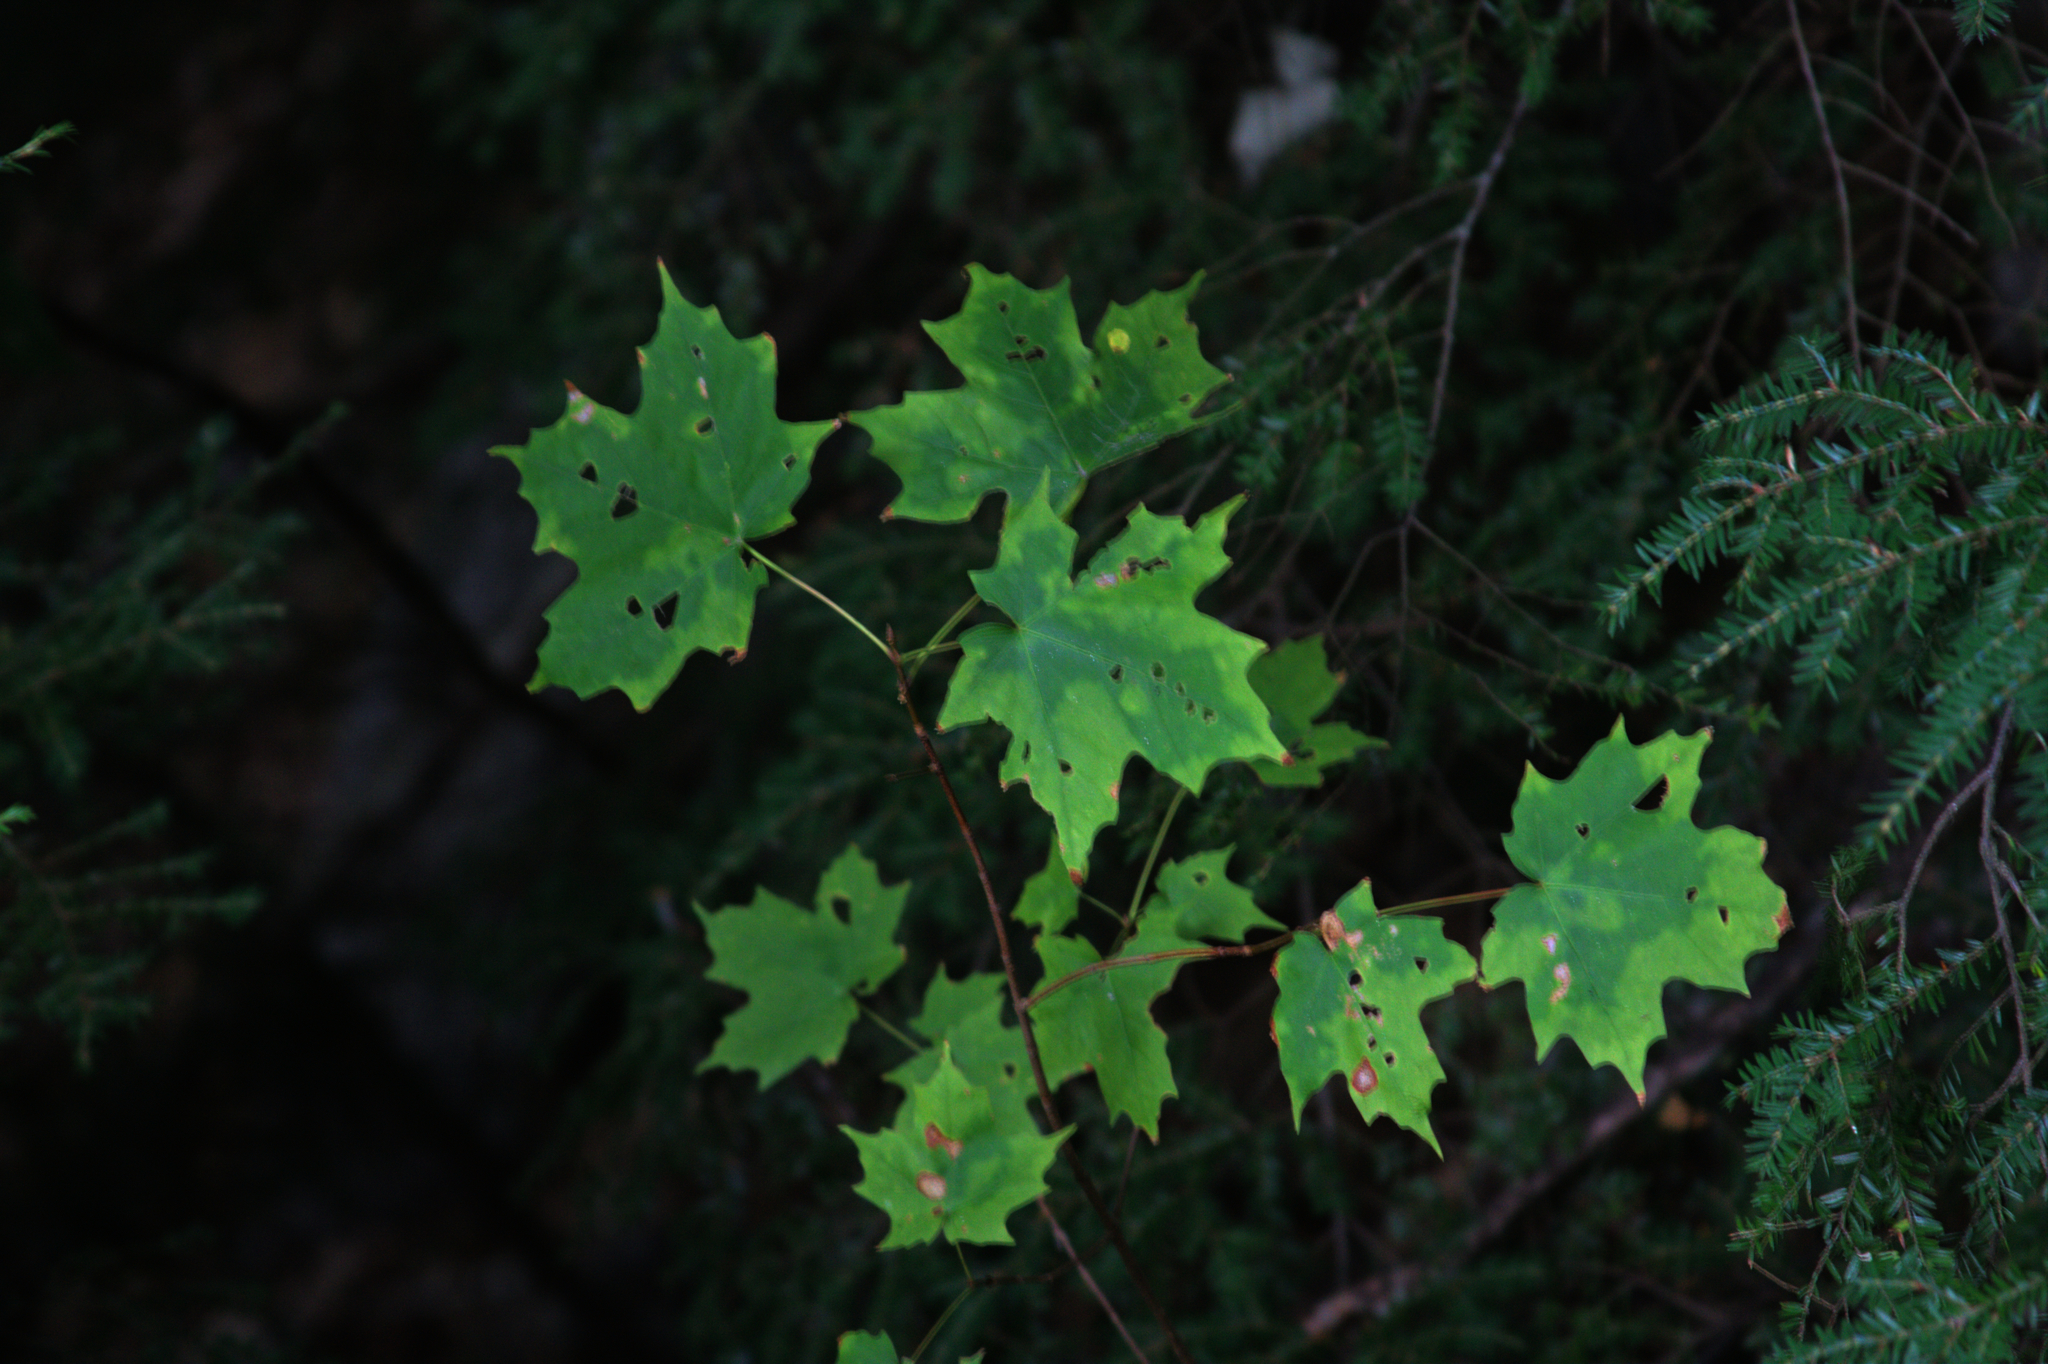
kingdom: Plantae
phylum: Tracheophyta
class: Pinopsida
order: Pinales
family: Pinaceae
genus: Tsuga
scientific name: Tsuga canadensis
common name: Eastern hemlock
